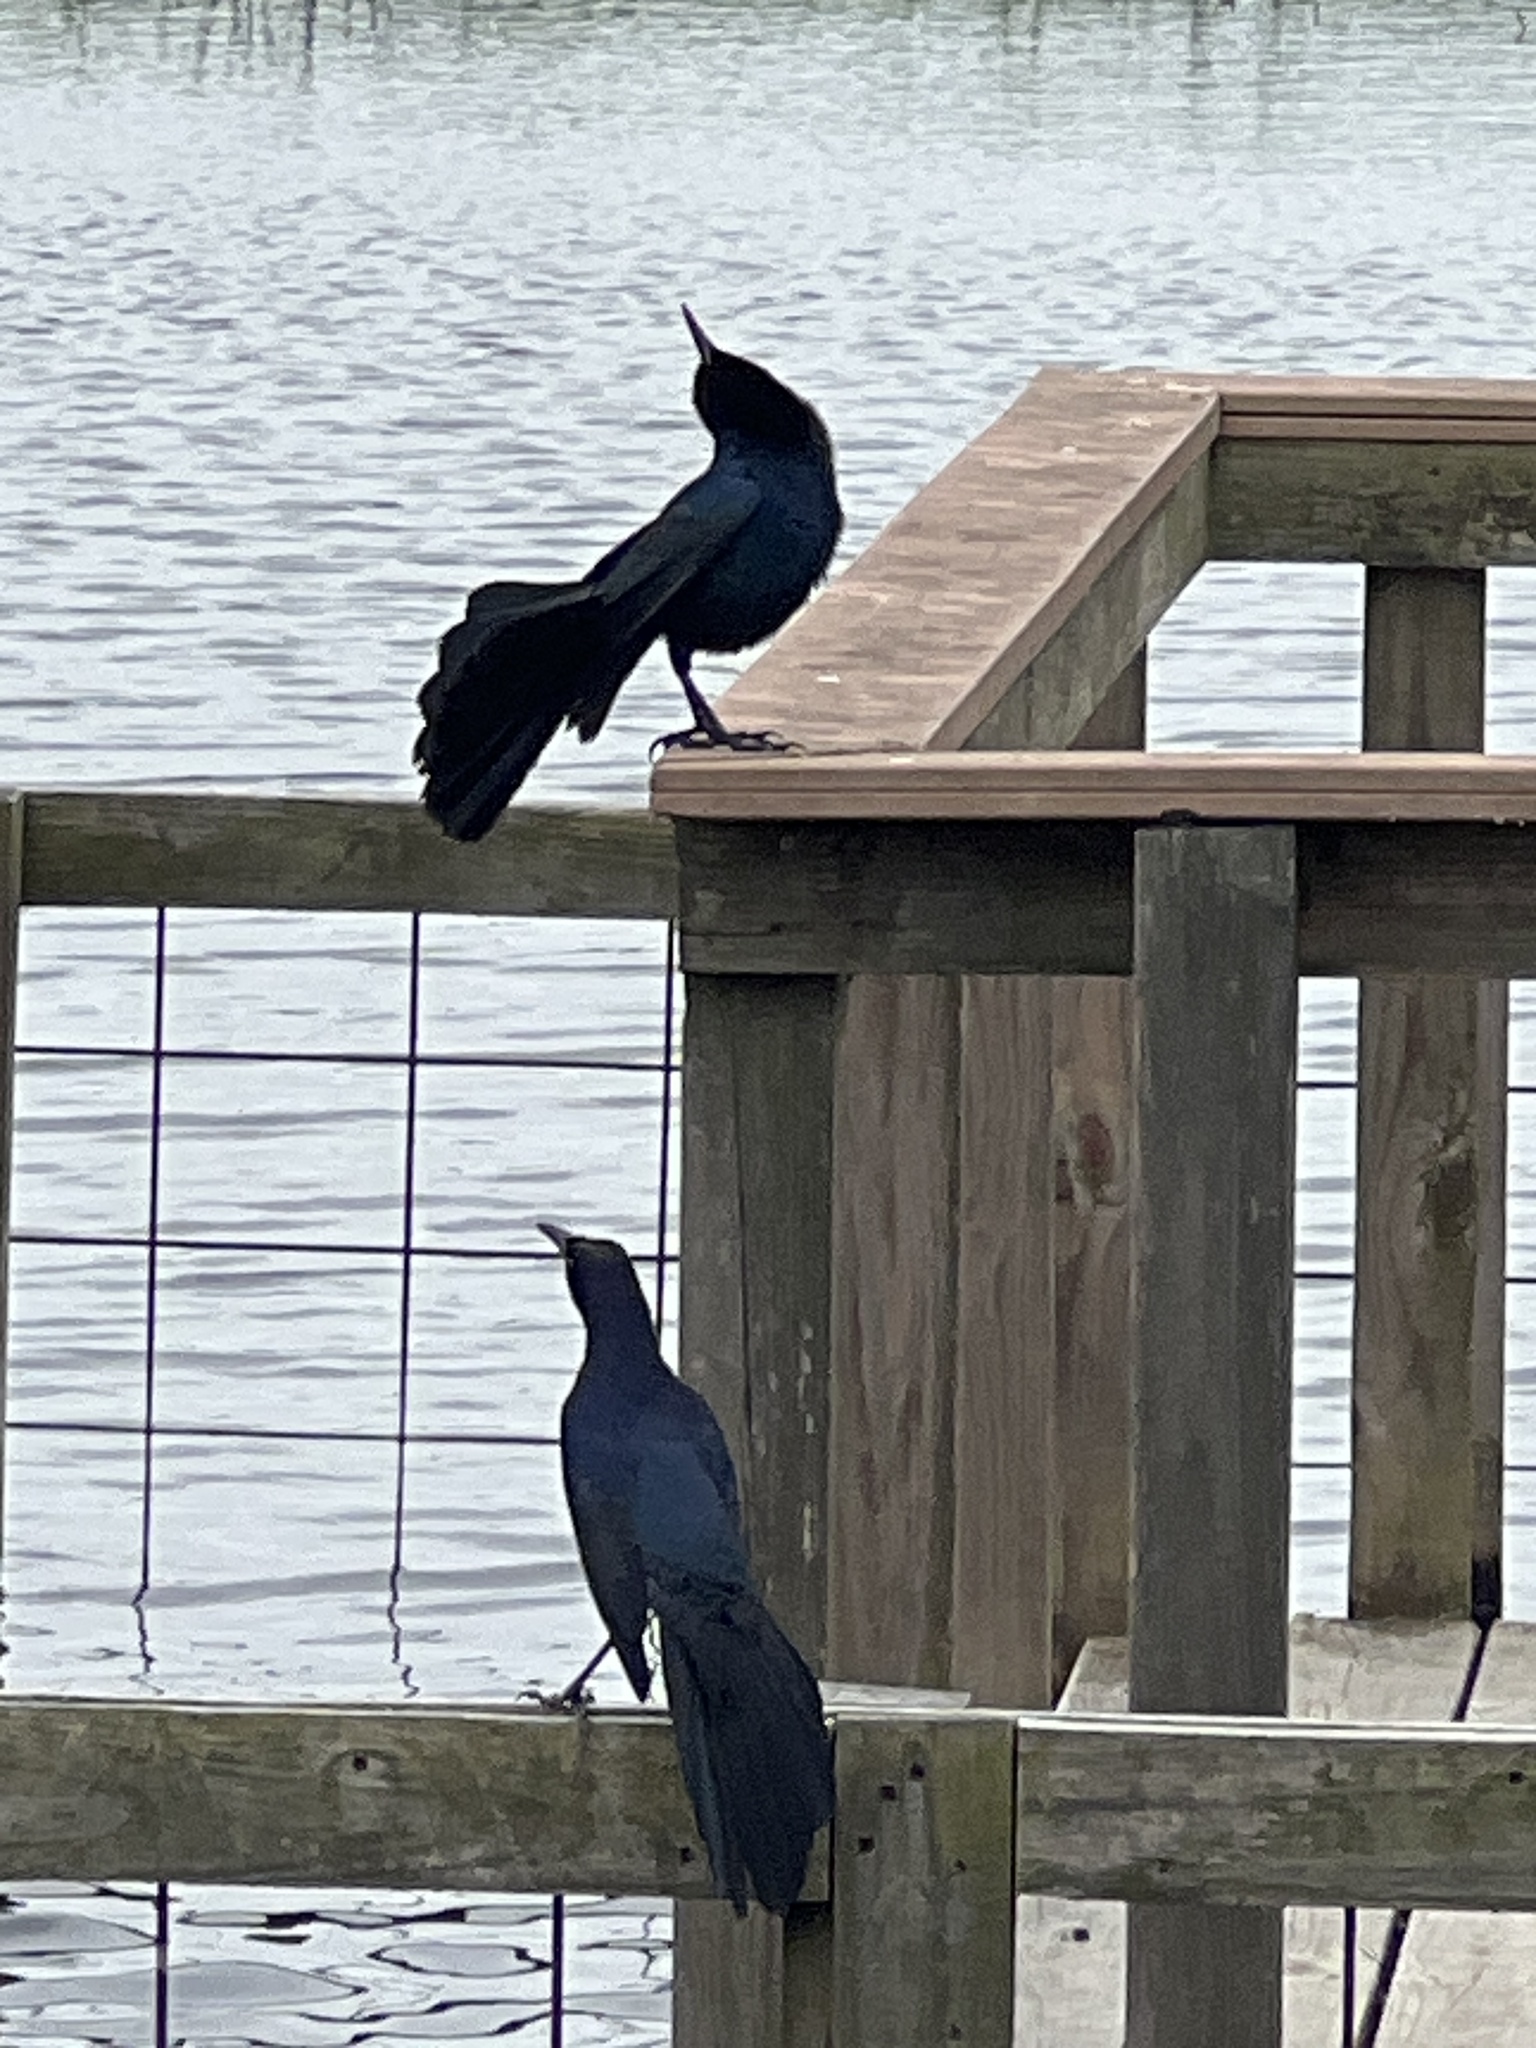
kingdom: Animalia
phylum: Chordata
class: Aves
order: Passeriformes
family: Icteridae
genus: Quiscalus
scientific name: Quiscalus mexicanus
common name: Great-tailed grackle
